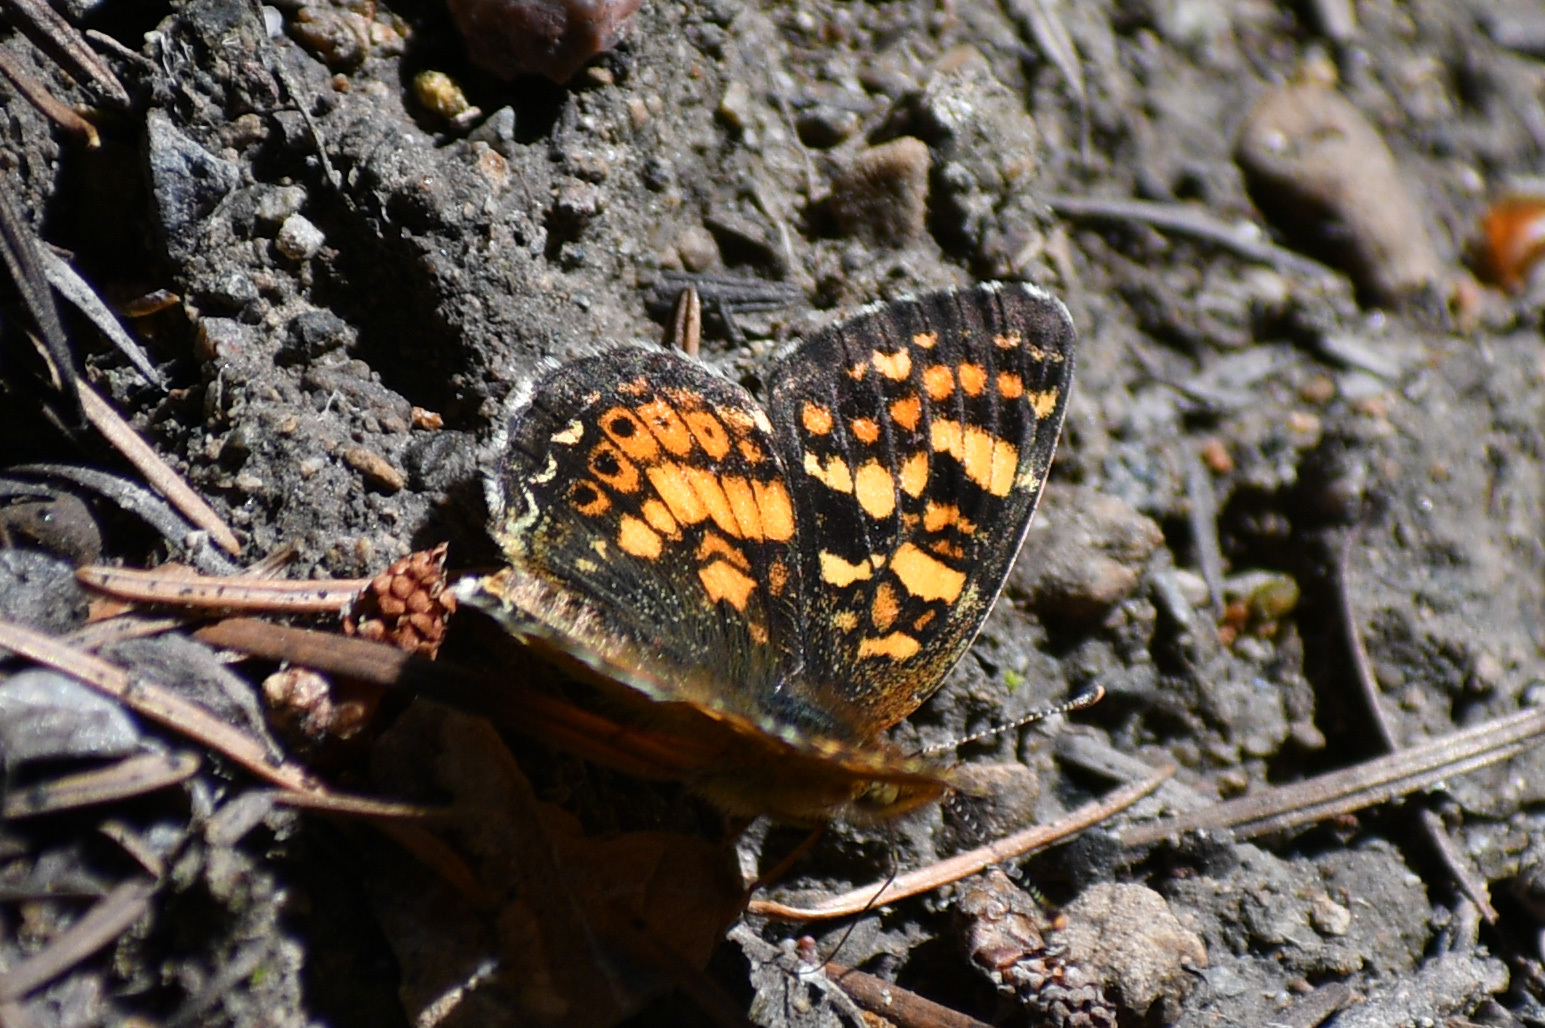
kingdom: Animalia
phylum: Arthropoda
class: Insecta
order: Lepidoptera
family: Nymphalidae
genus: Phyciodes
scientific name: Phyciodes tharos
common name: Pearl crescent
